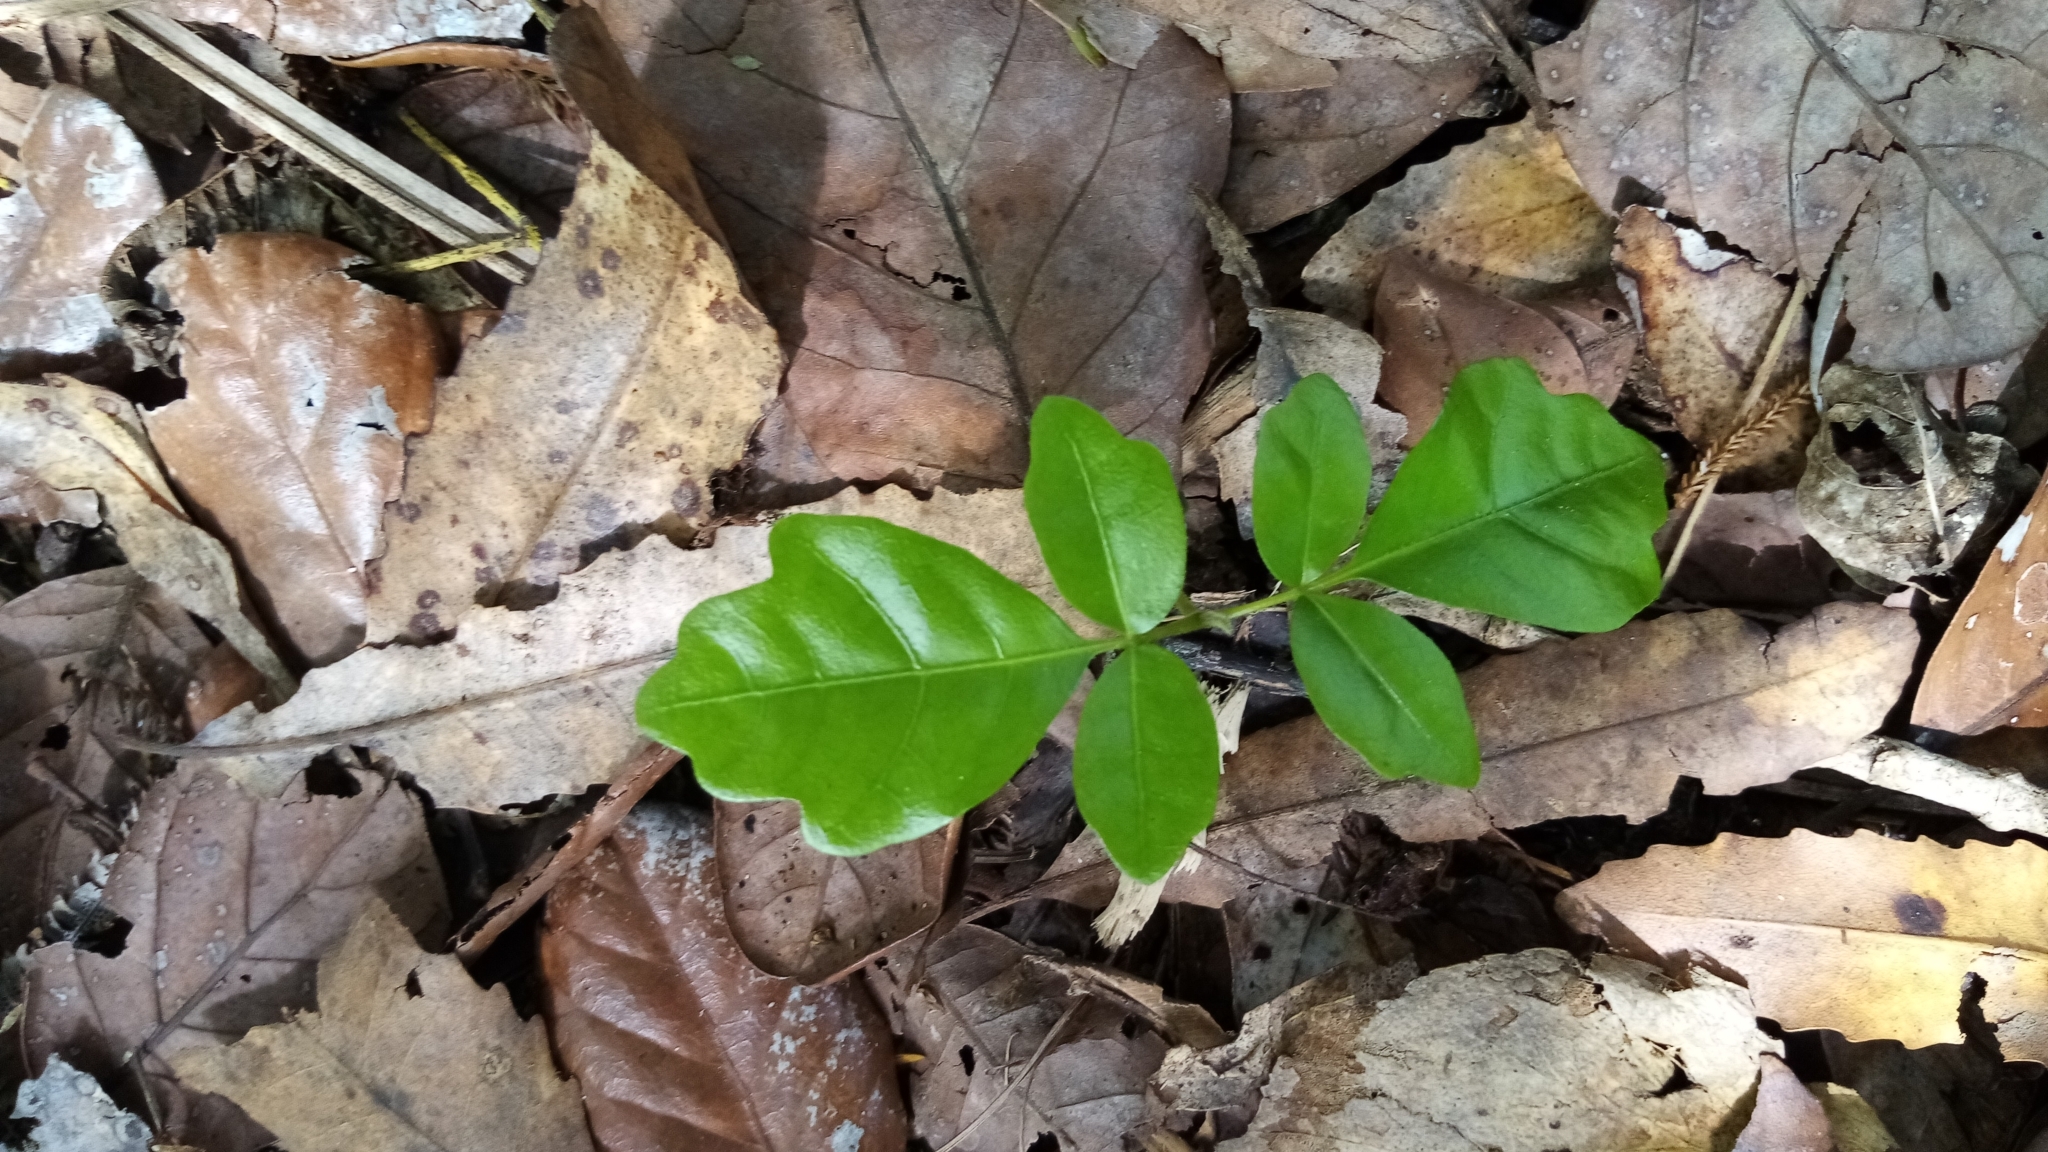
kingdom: Plantae
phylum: Tracheophyta
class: Magnoliopsida
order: Sapindales
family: Meliaceae
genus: Didymocheton
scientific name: Didymocheton spectabilis
